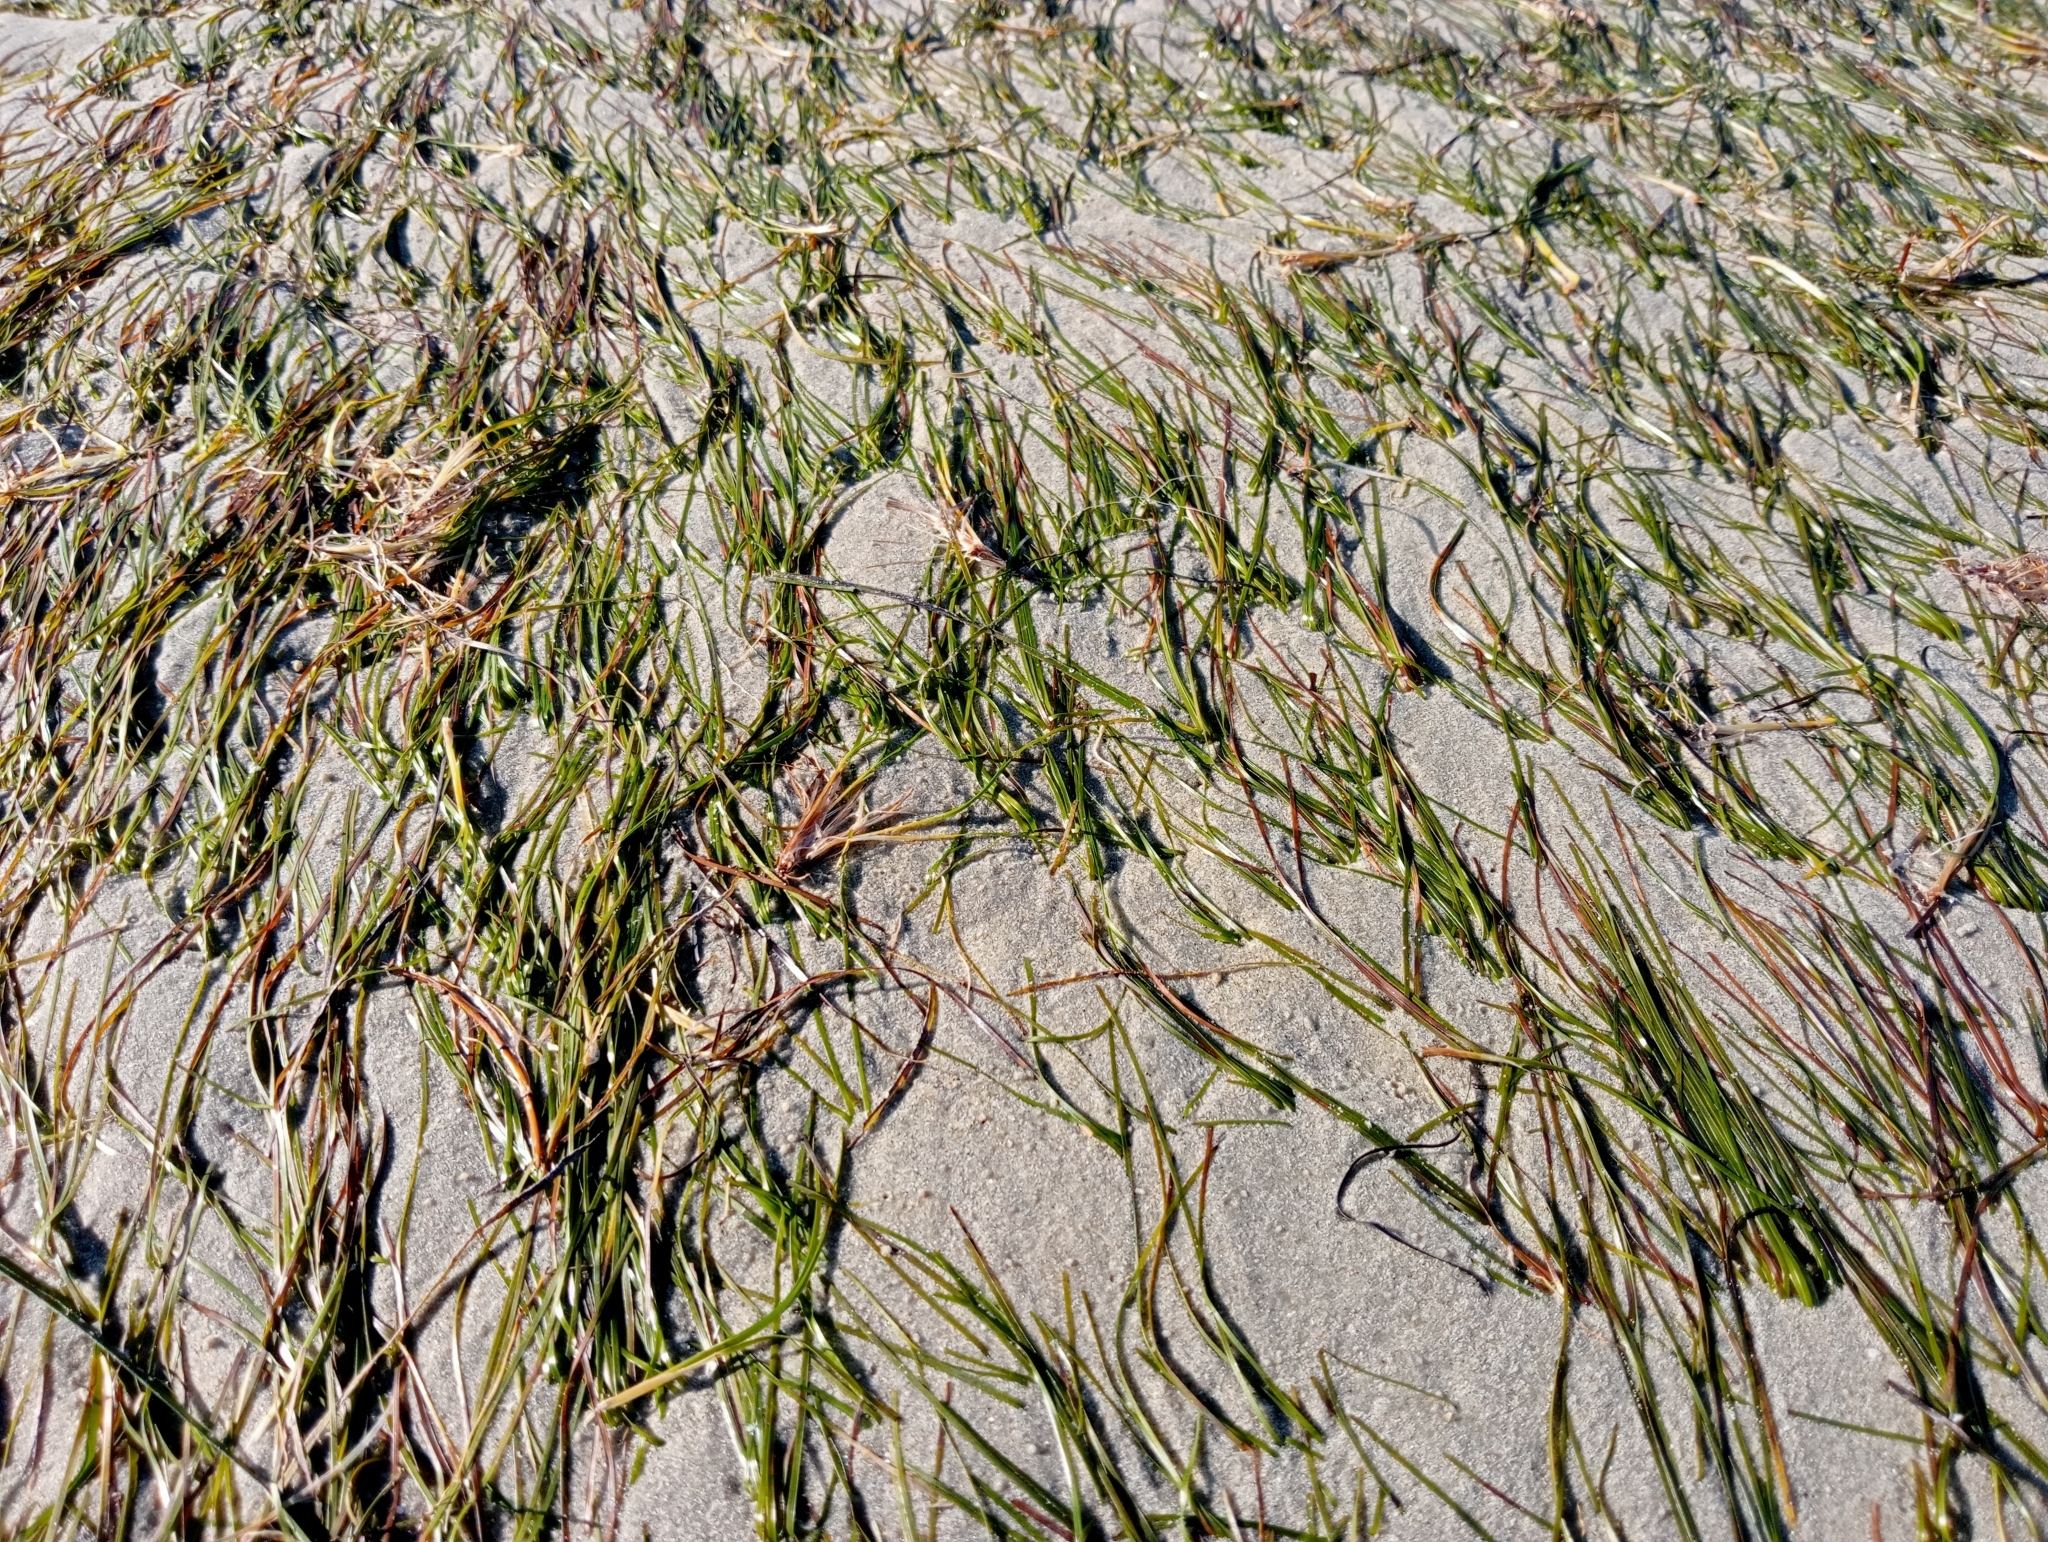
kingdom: Plantae
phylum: Tracheophyta
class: Liliopsida
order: Alismatales
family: Zosteraceae
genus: Zostera
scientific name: Zostera novazelandica
